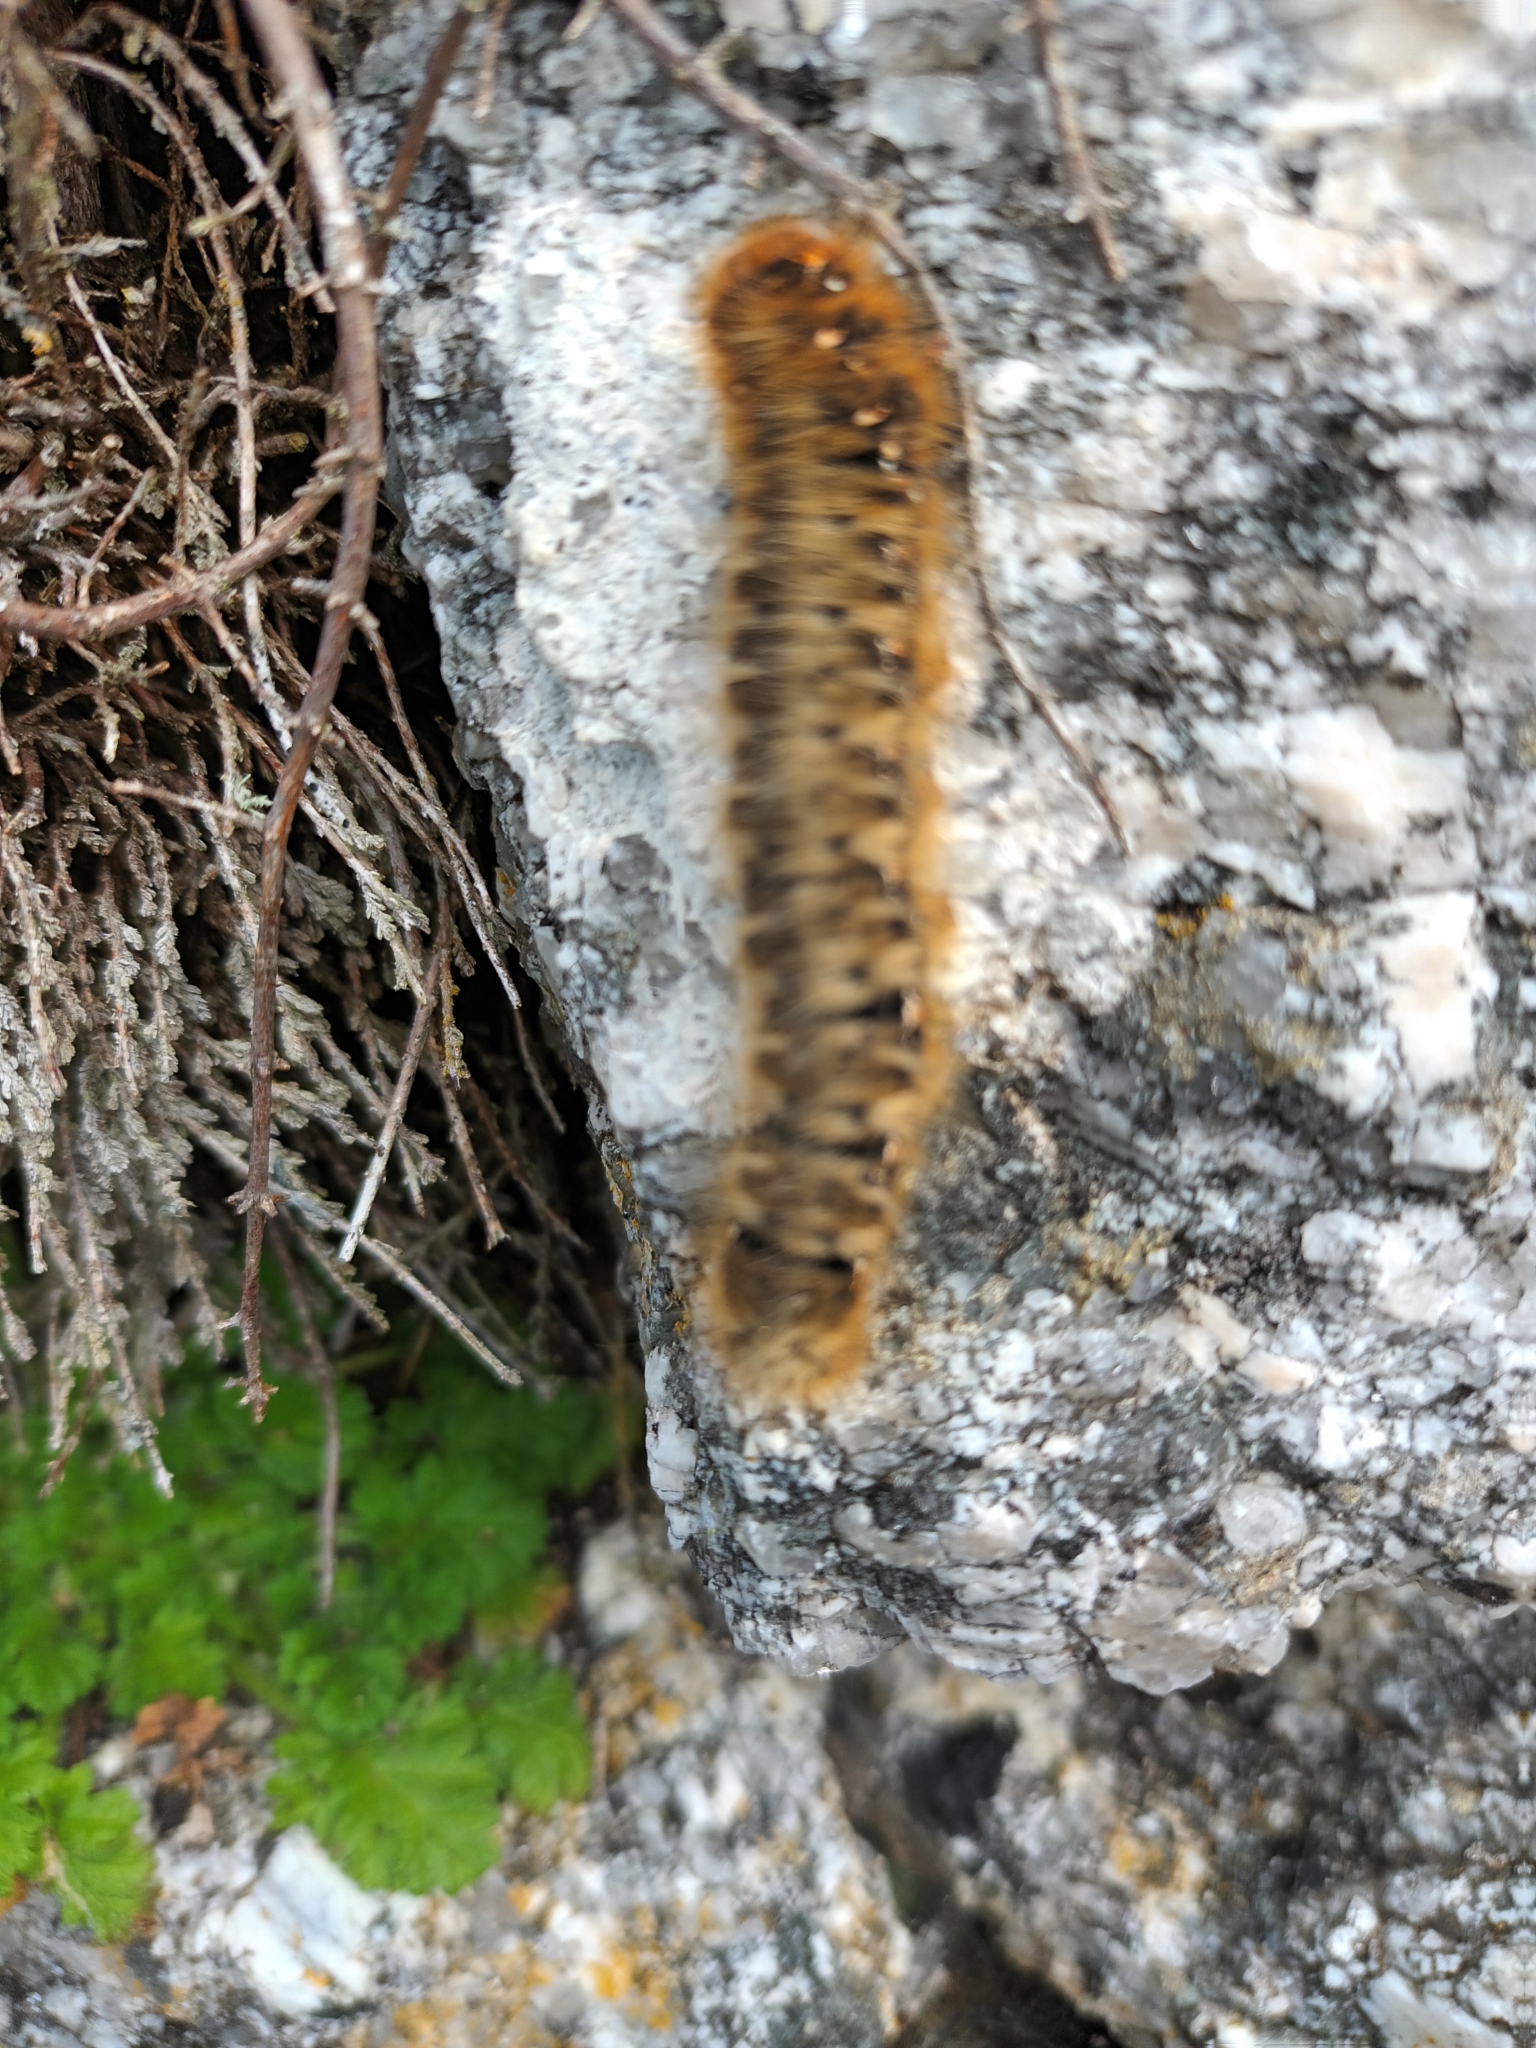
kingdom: Animalia
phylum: Arthropoda
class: Insecta
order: Lepidoptera
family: Lasiocampidae
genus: Lasiocampa
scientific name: Lasiocampa quercus
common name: Oak eggar
